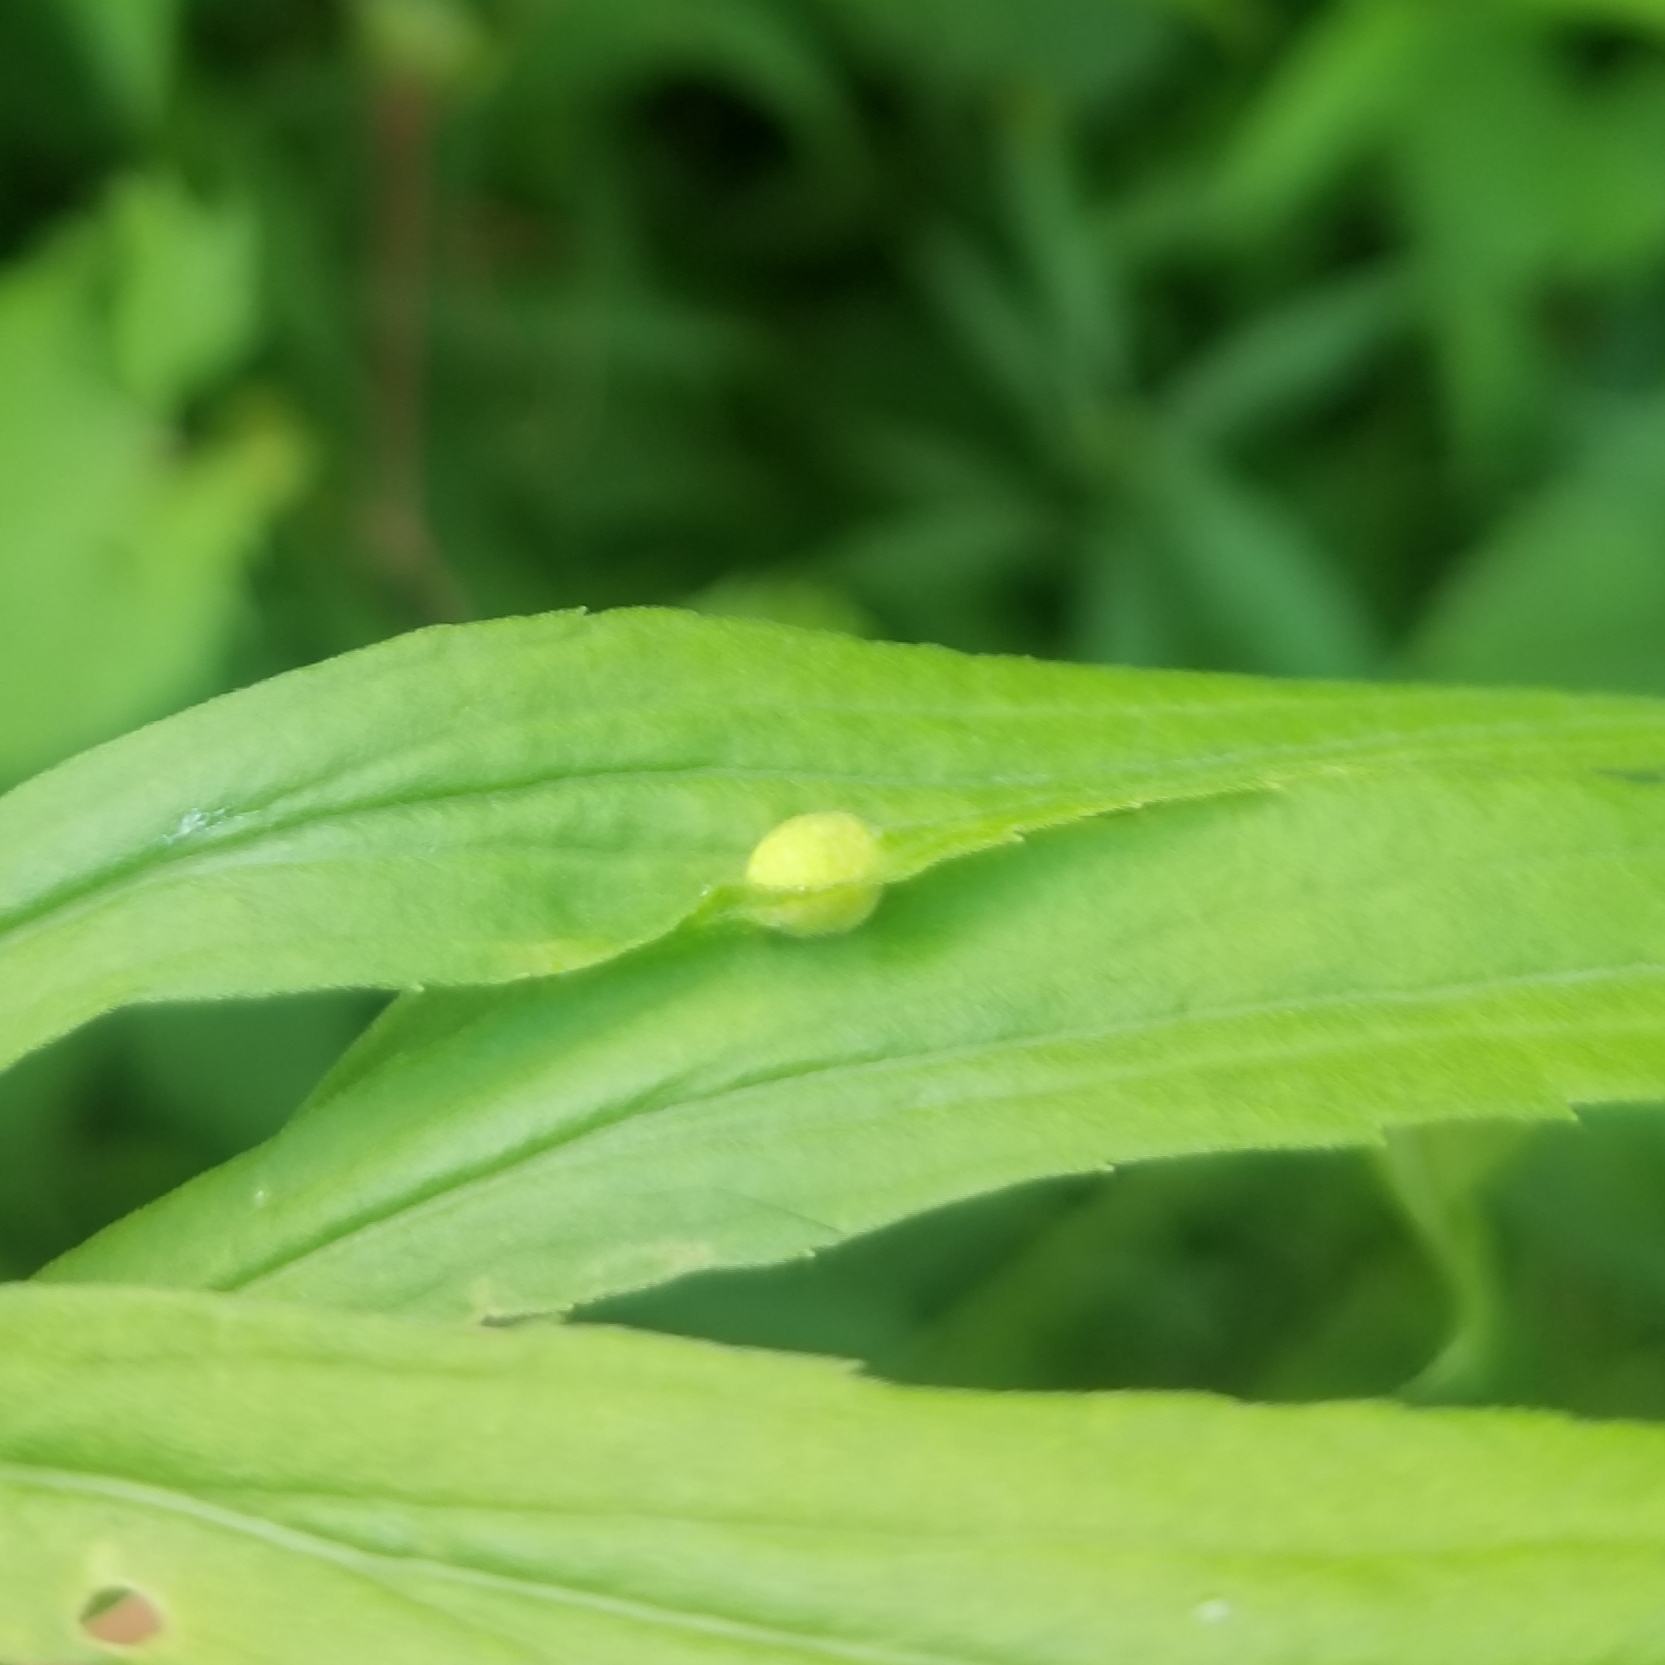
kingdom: Animalia
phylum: Arthropoda
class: Insecta
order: Diptera
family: Cecidomyiidae
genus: Asphondylia
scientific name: Asphondylia solidaginis
